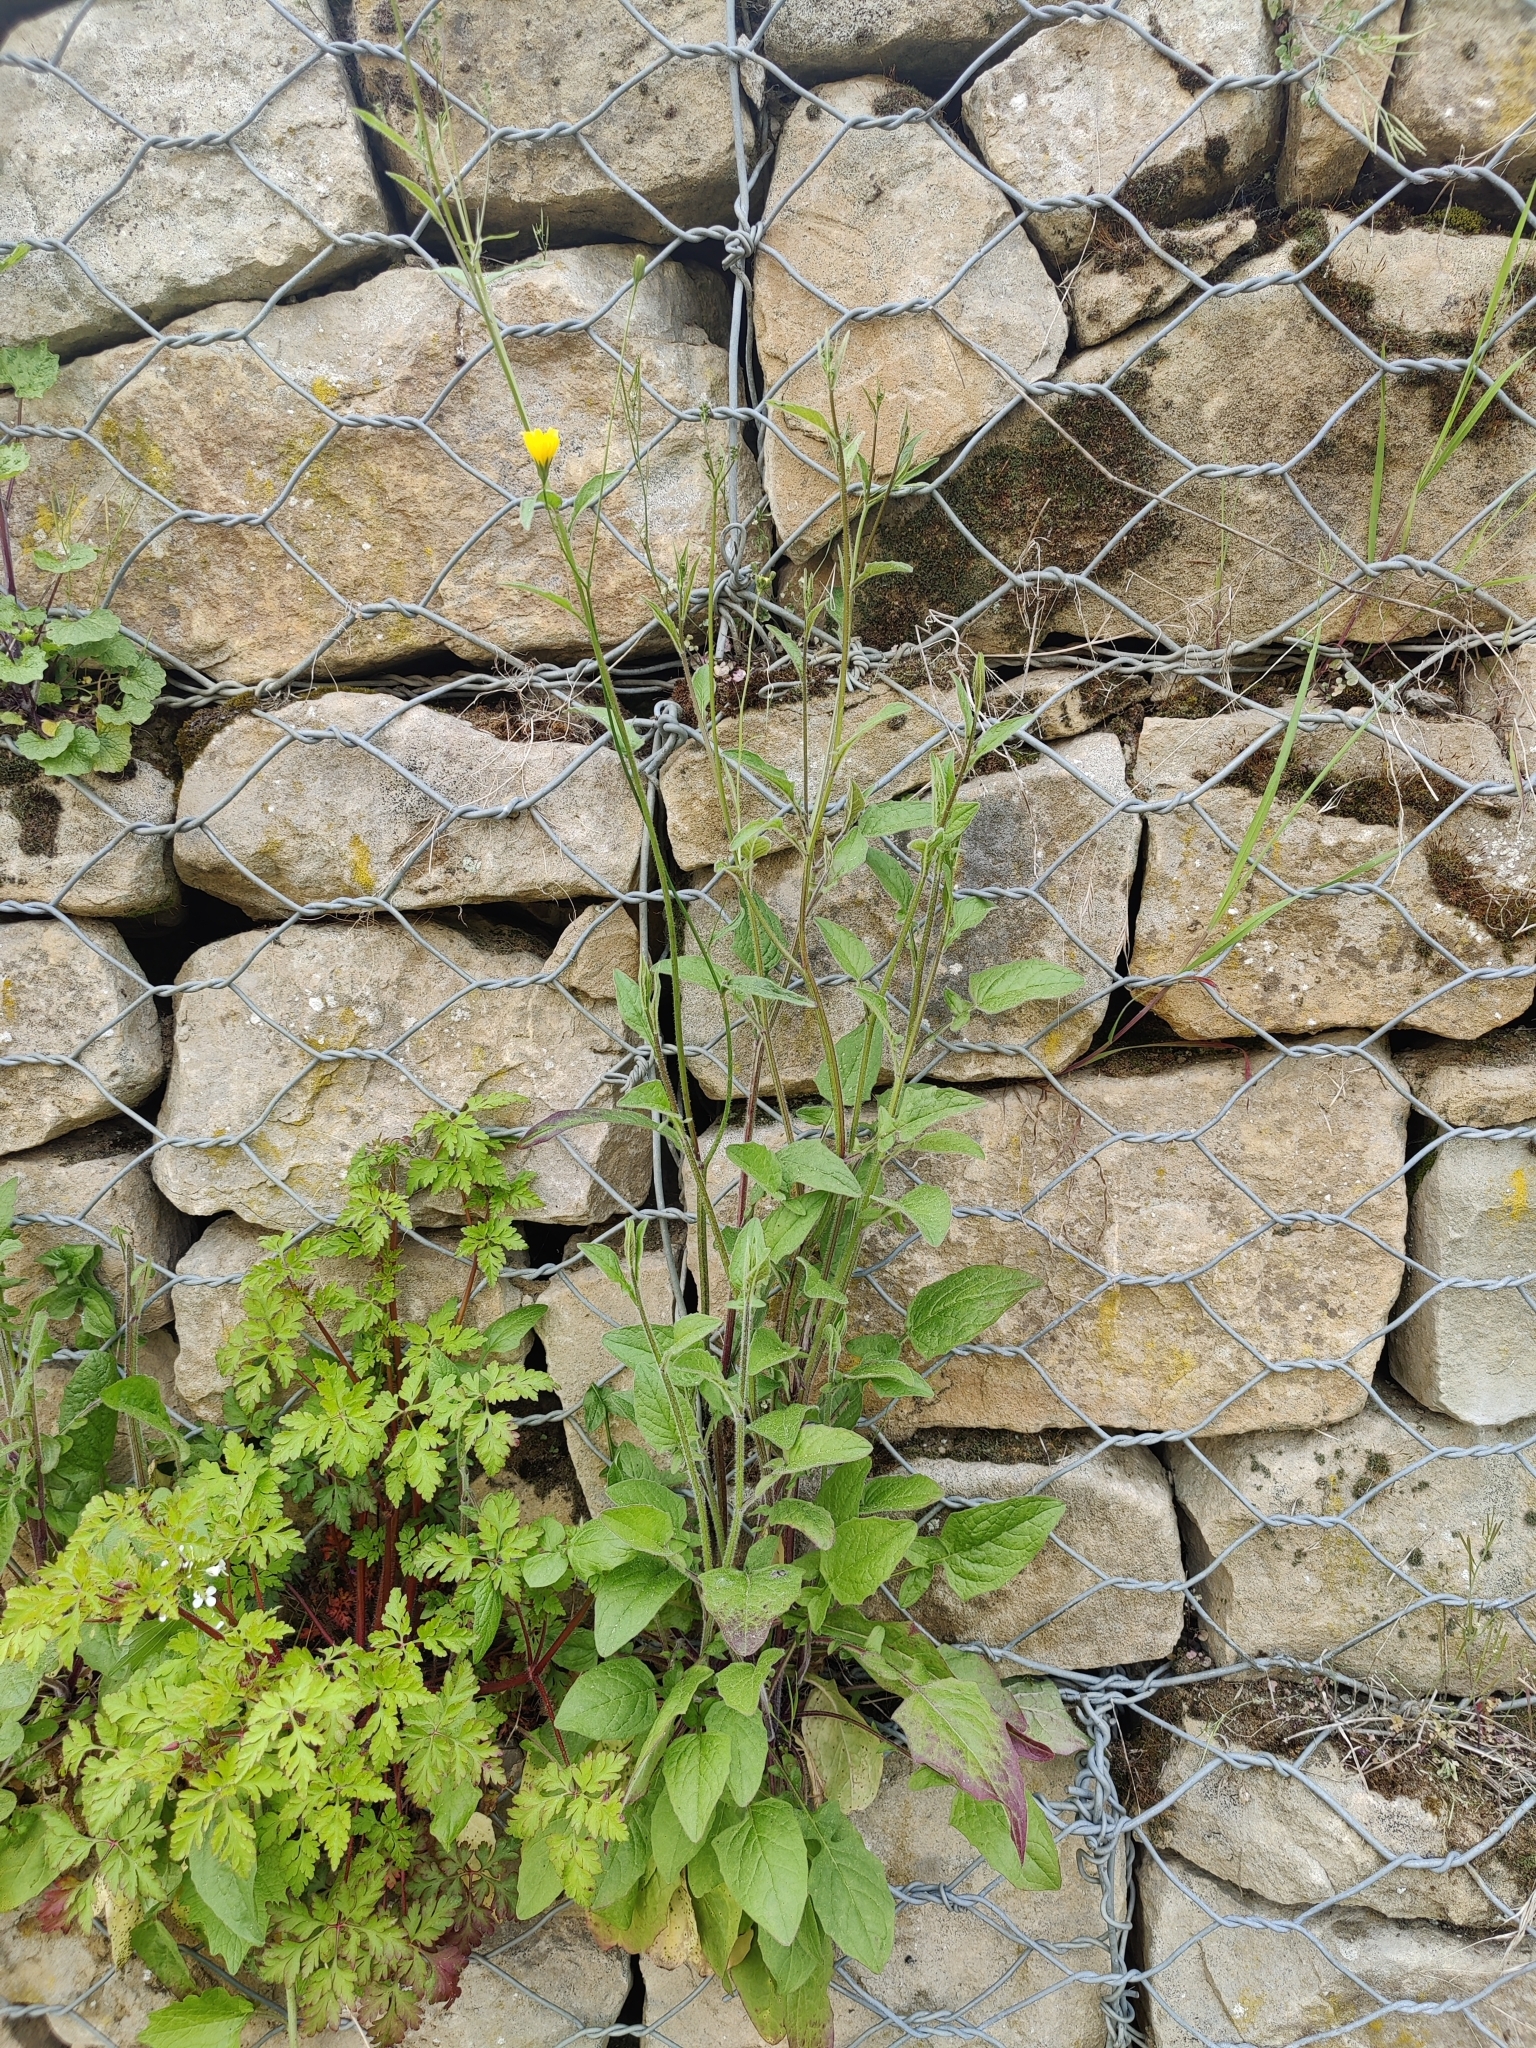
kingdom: Plantae
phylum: Tracheophyta
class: Magnoliopsida
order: Asterales
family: Asteraceae
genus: Lapsana
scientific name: Lapsana communis
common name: Nipplewort
